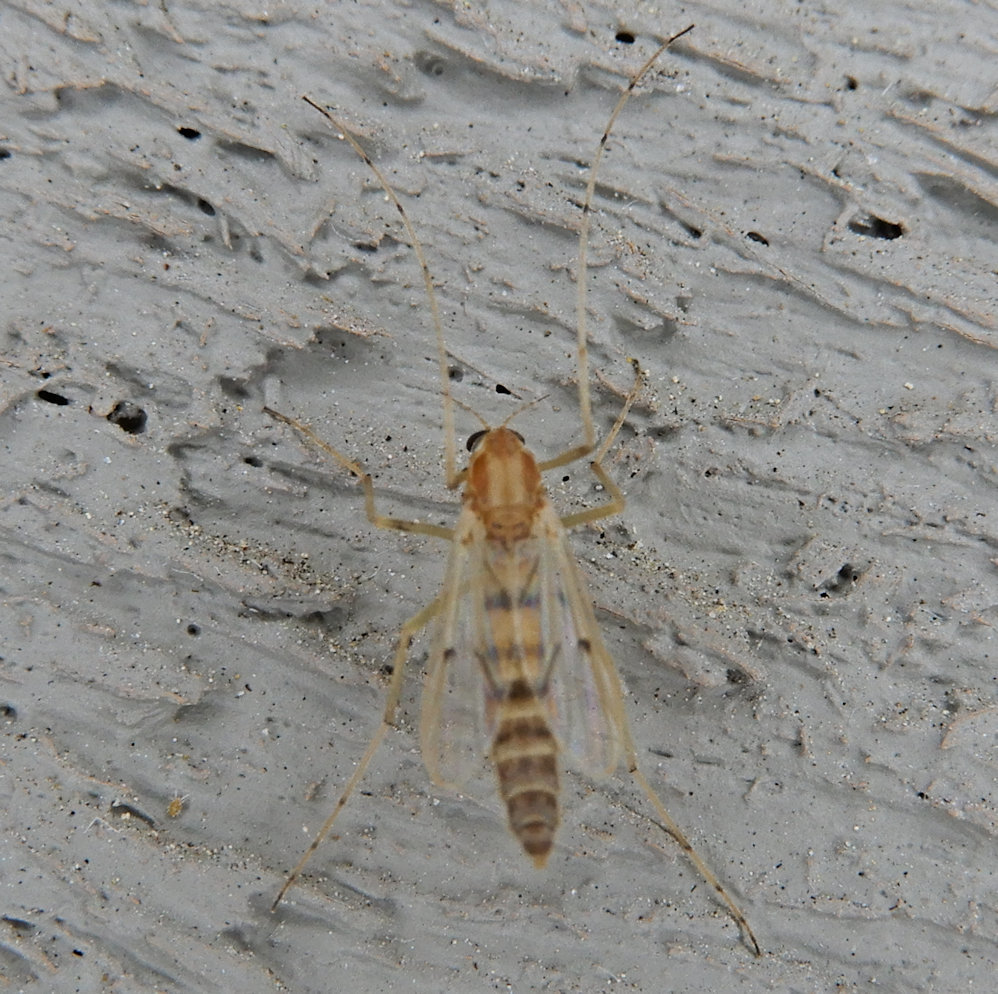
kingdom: Animalia
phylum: Arthropoda
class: Insecta
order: Diptera
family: Chironomidae
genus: Procladius
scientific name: Procladius bellus
